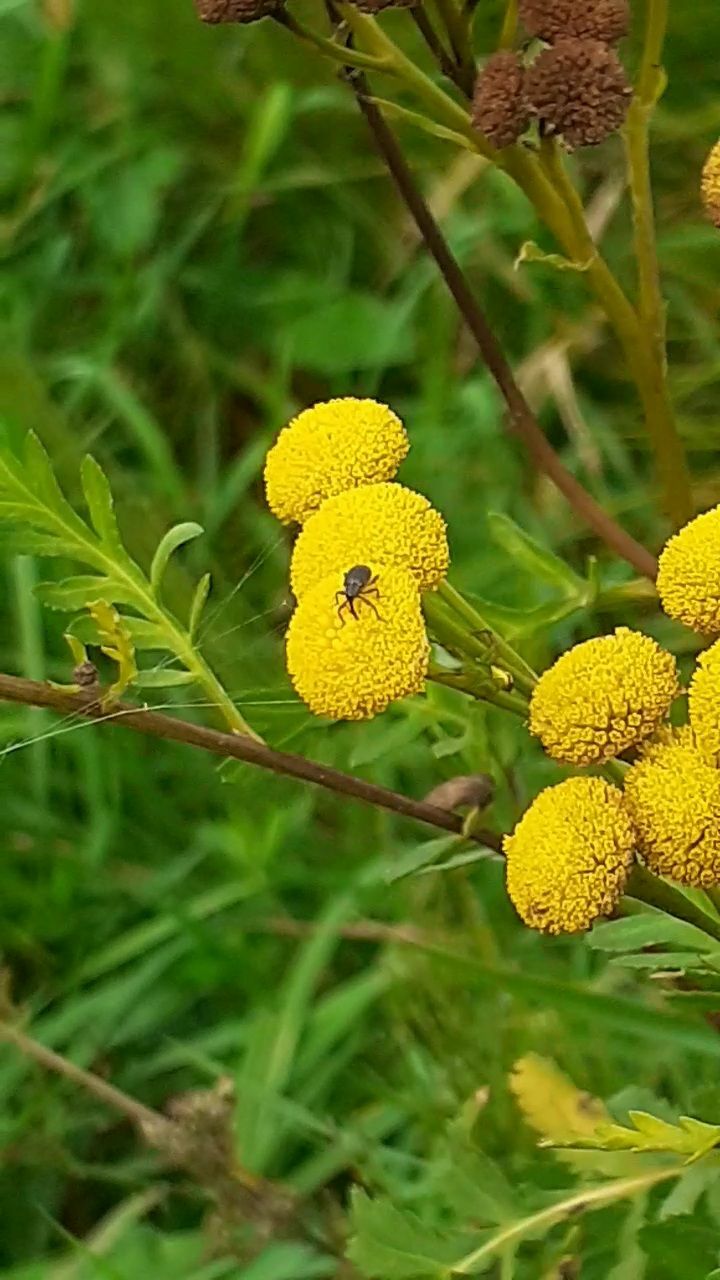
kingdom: Plantae
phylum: Tracheophyta
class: Magnoliopsida
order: Asterales
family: Asteraceae
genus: Tanacetum
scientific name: Tanacetum vulgare
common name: Common tansy
